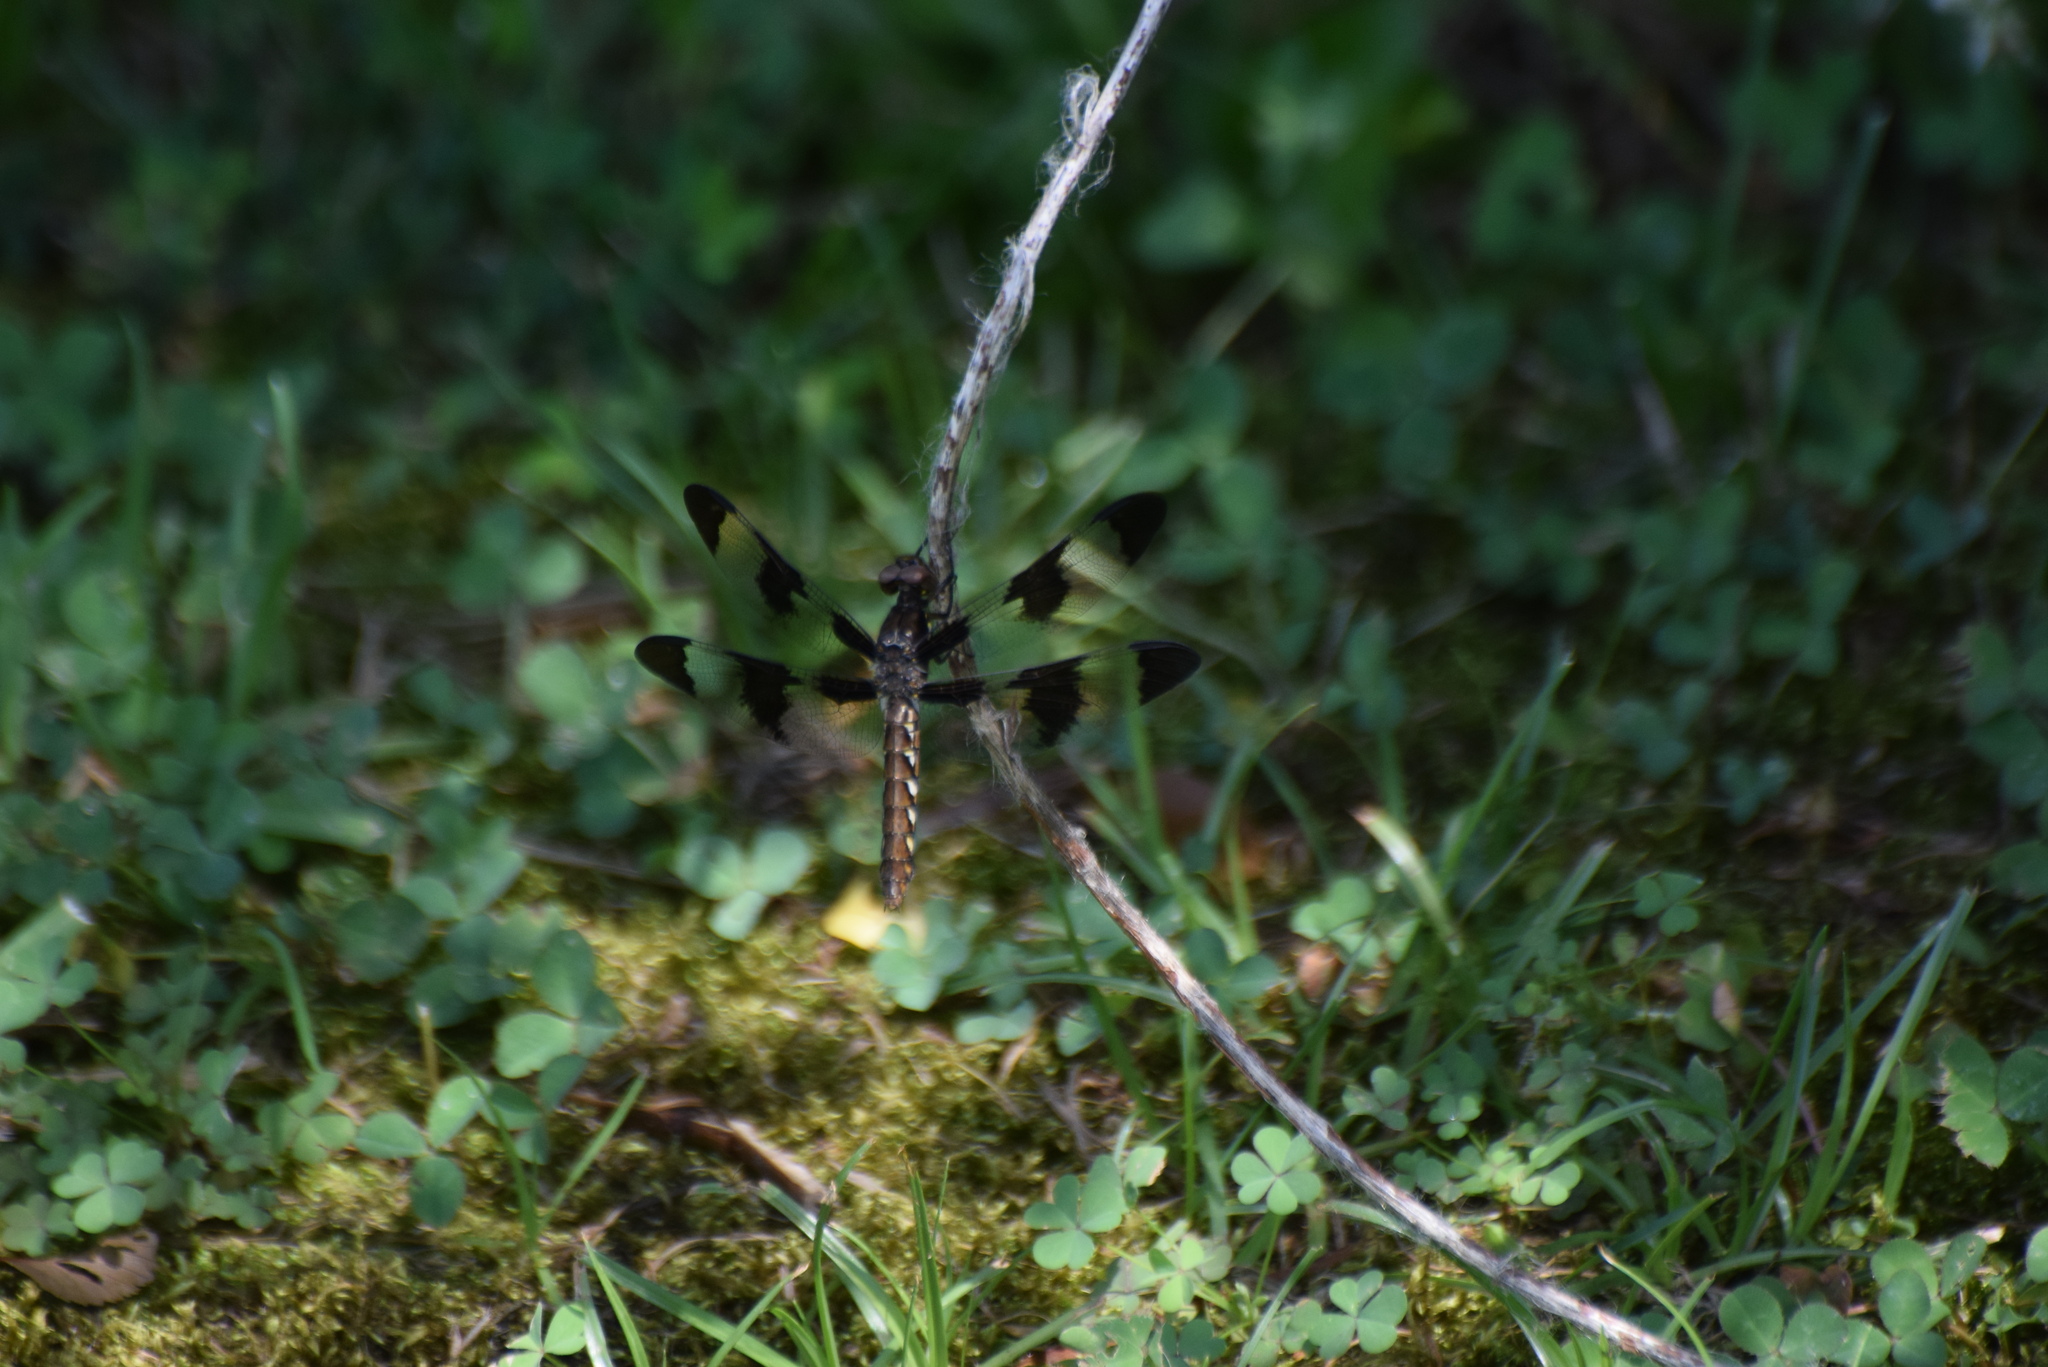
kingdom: Animalia
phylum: Arthropoda
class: Insecta
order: Odonata
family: Libellulidae
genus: Plathemis
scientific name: Plathemis lydia
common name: Common whitetail
